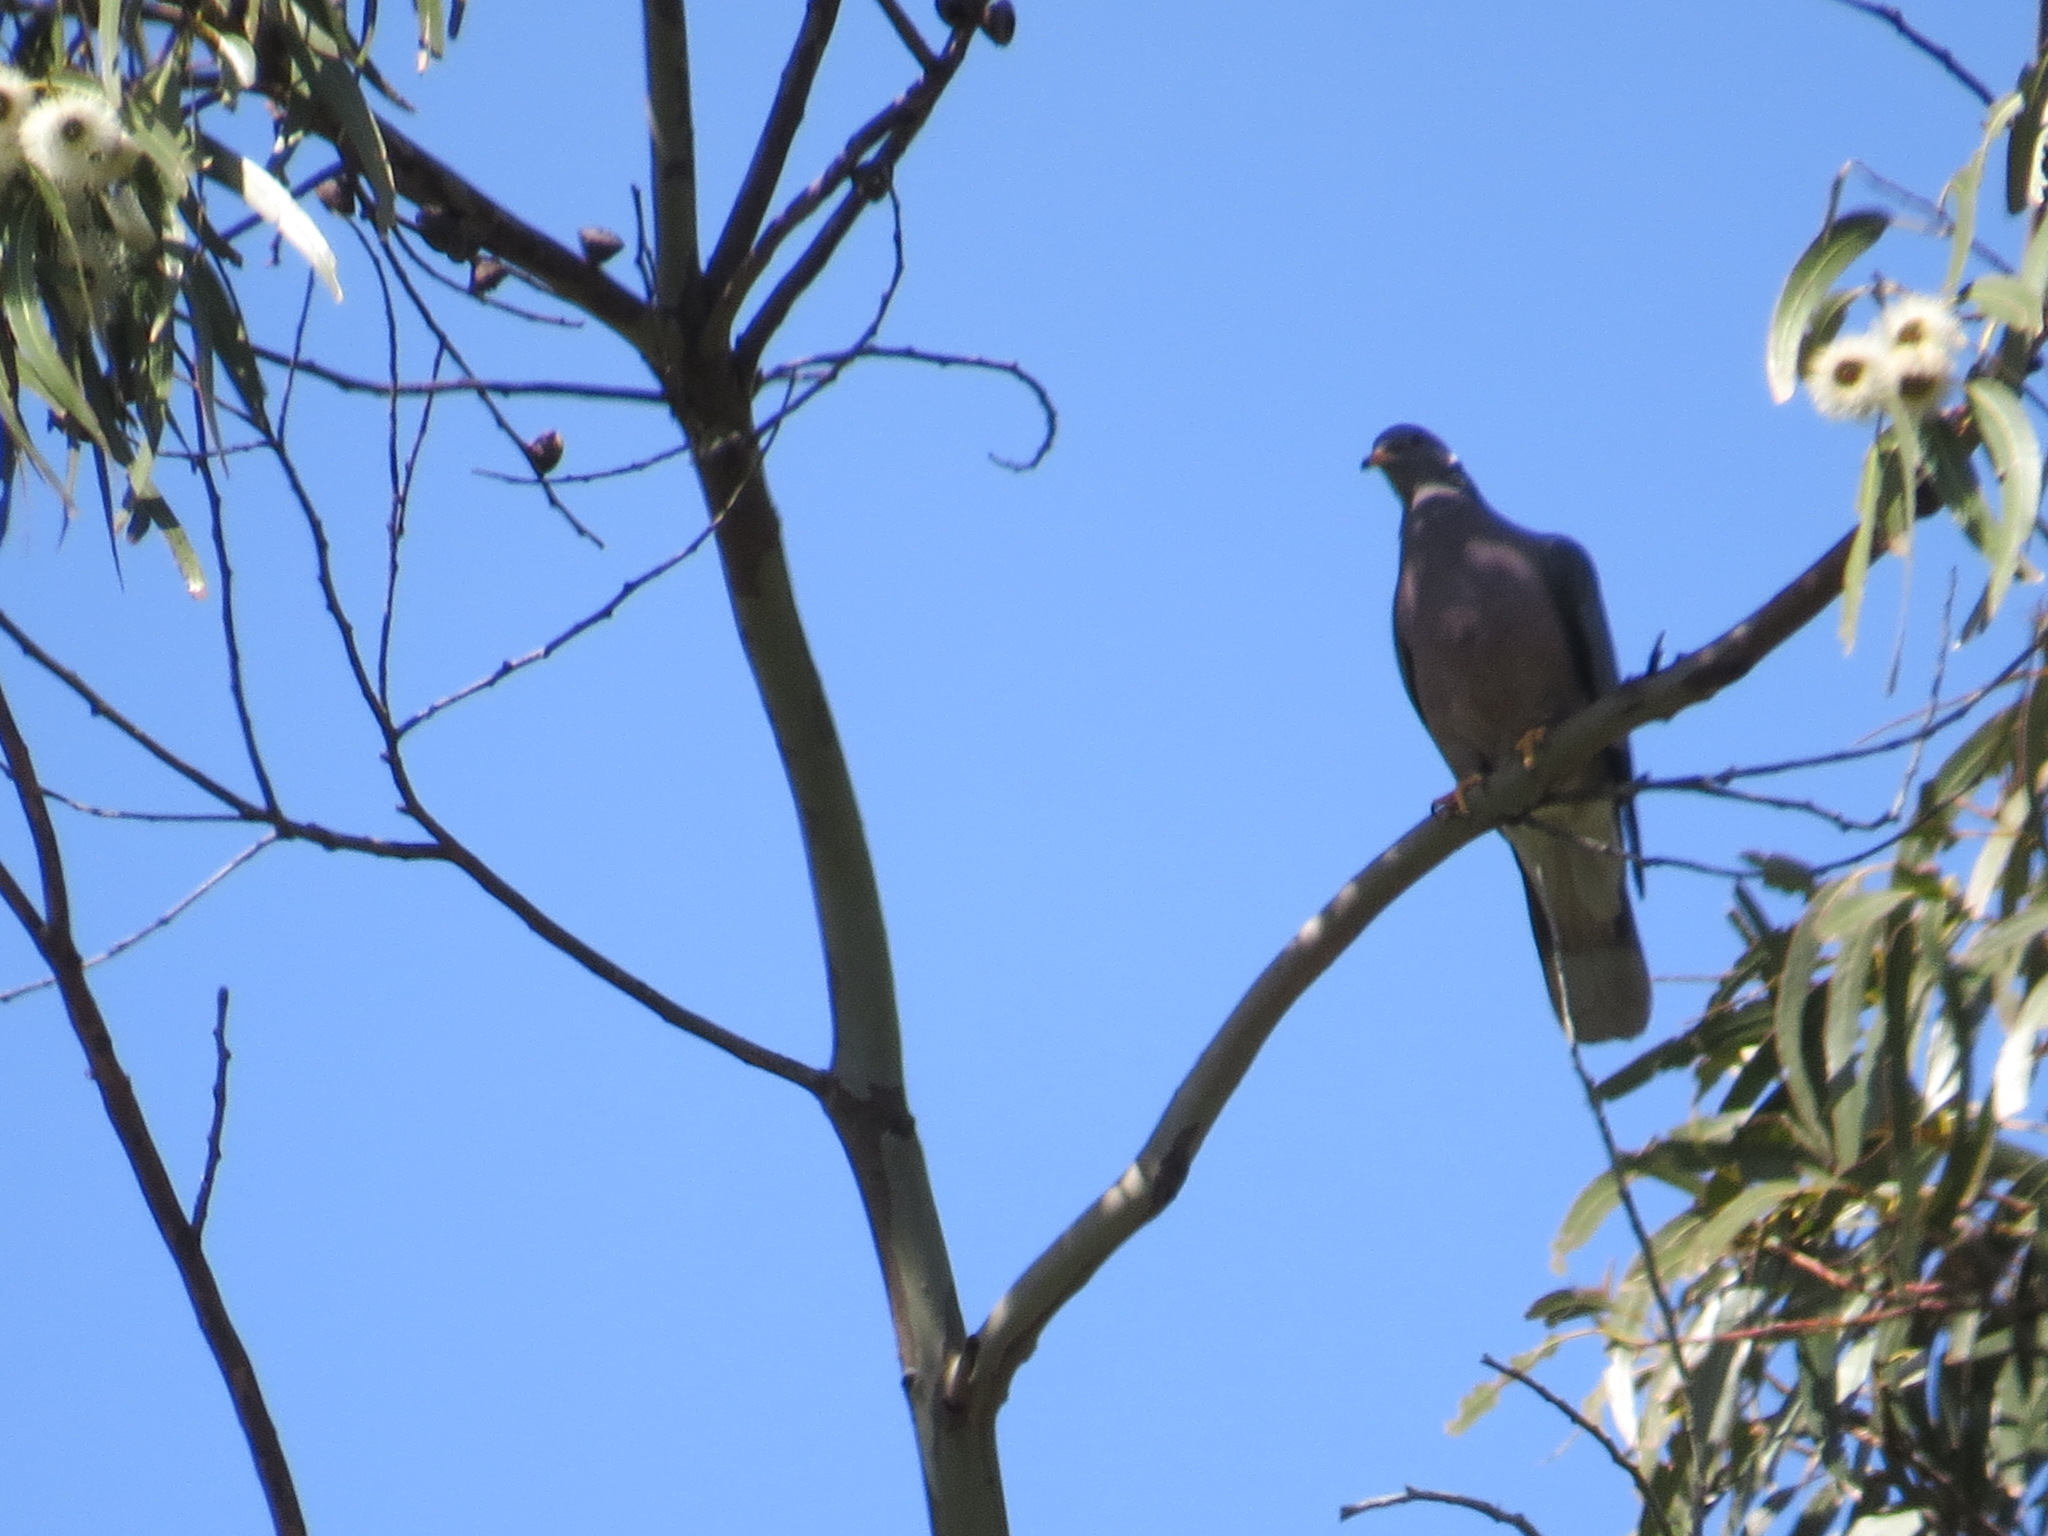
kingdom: Animalia
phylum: Chordata
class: Aves
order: Columbiformes
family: Columbidae
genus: Patagioenas
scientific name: Patagioenas fasciata
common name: Band-tailed pigeon
